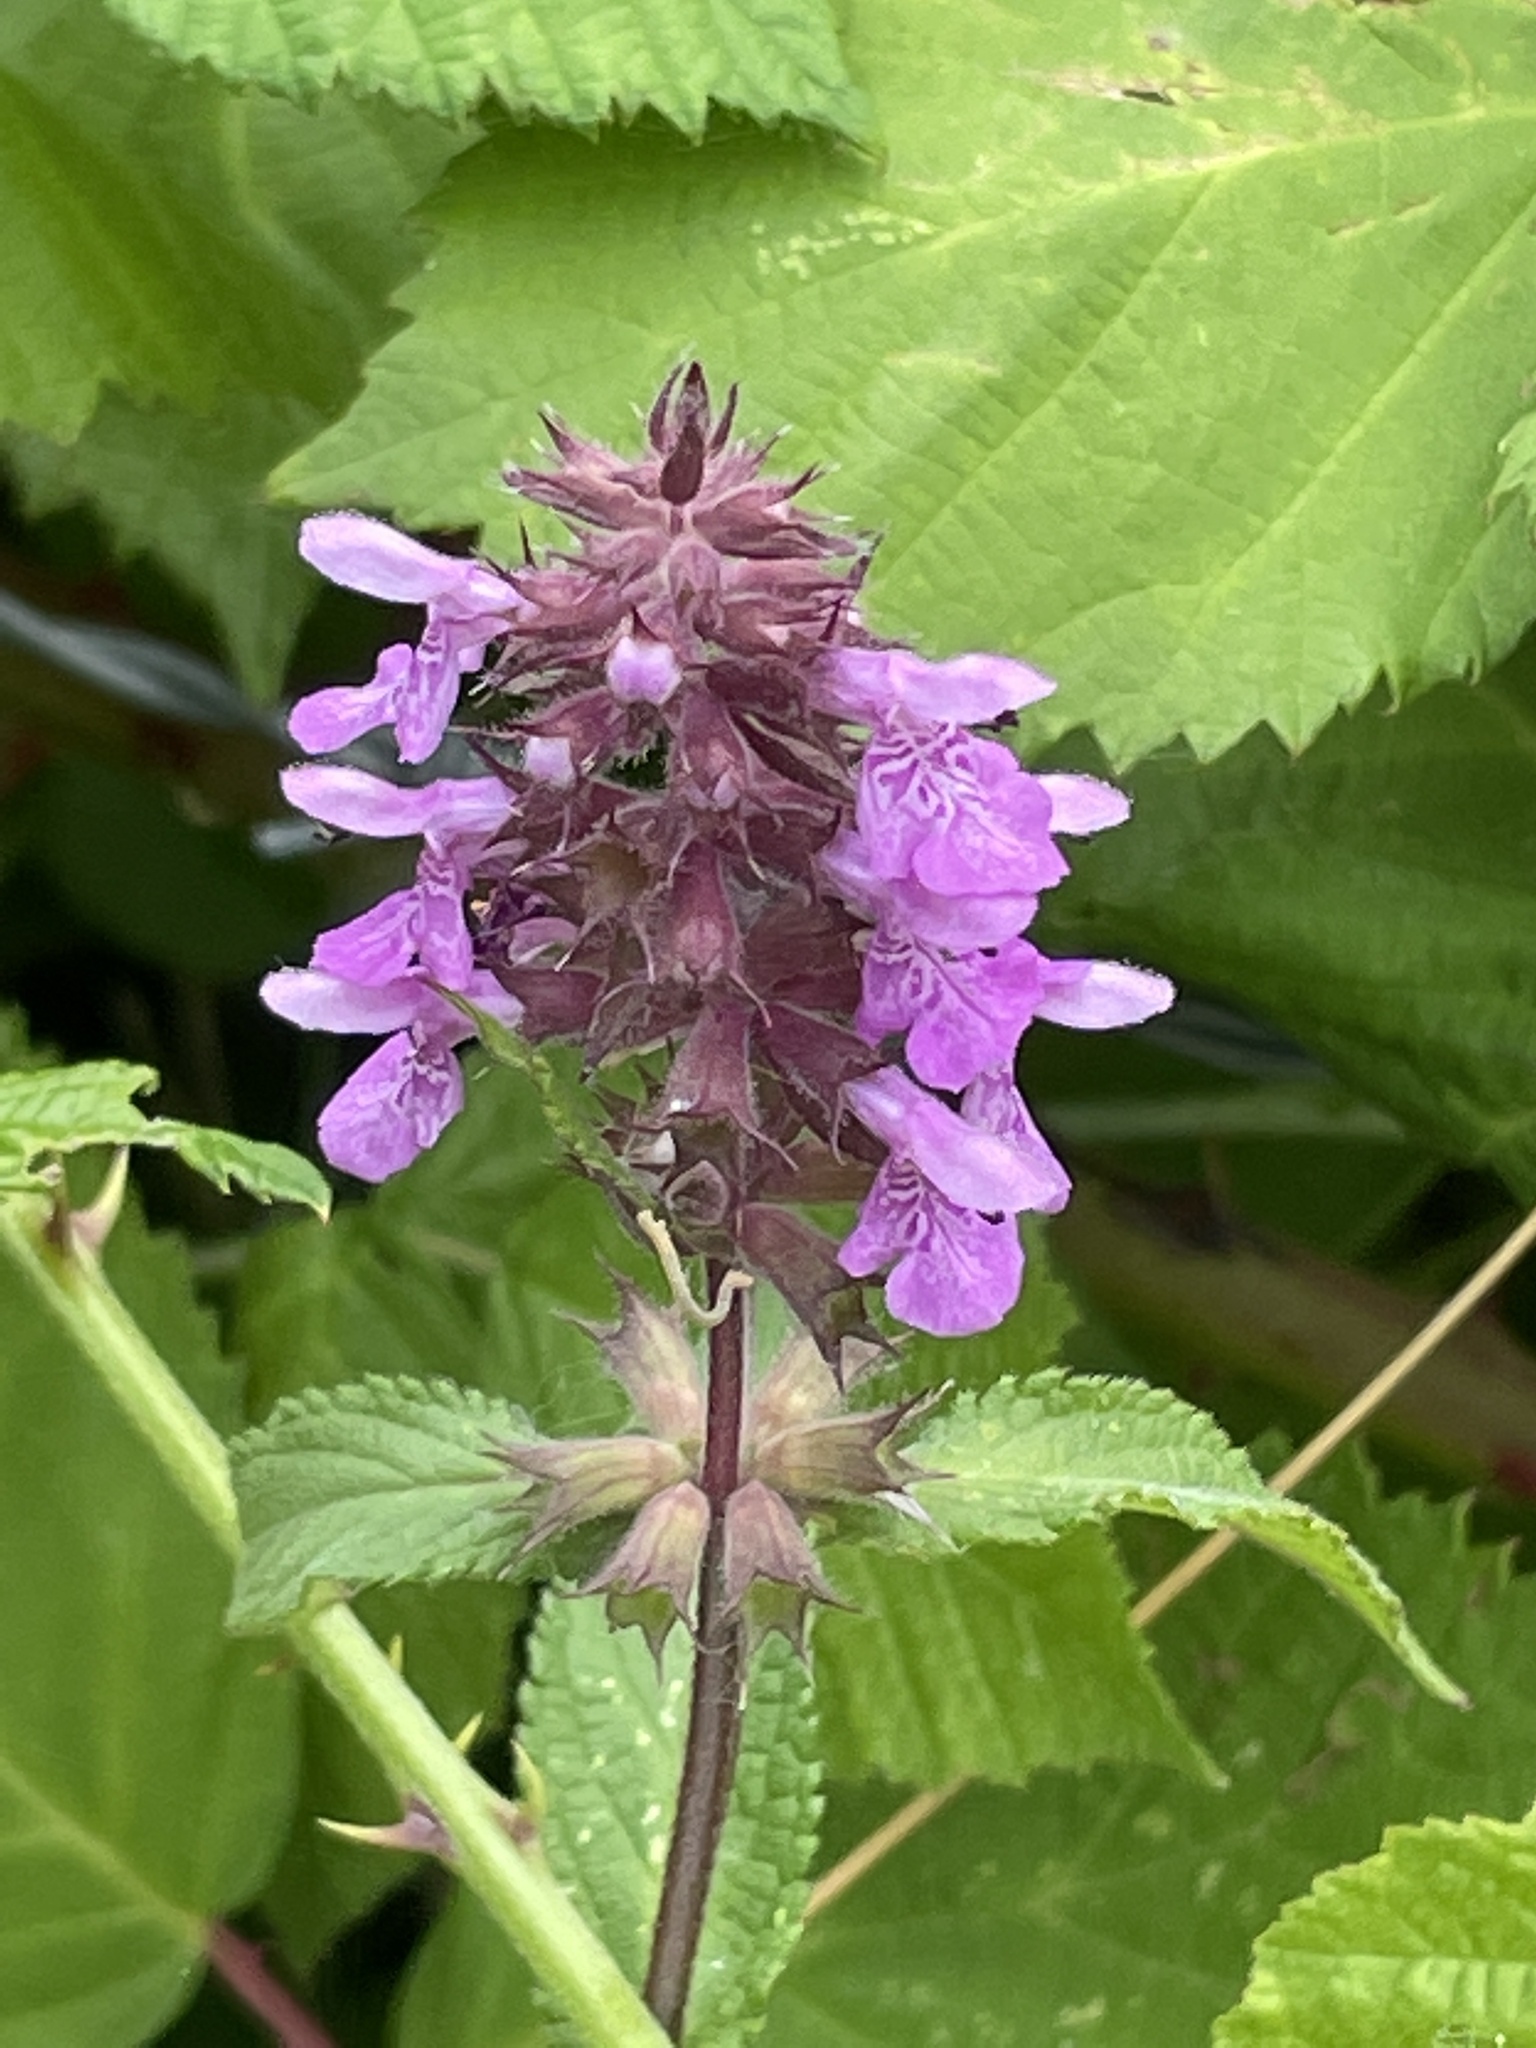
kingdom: Plantae
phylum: Tracheophyta
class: Magnoliopsida
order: Lamiales
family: Lamiaceae
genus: Stachys
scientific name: Stachys palustris
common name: Marsh woundwort
